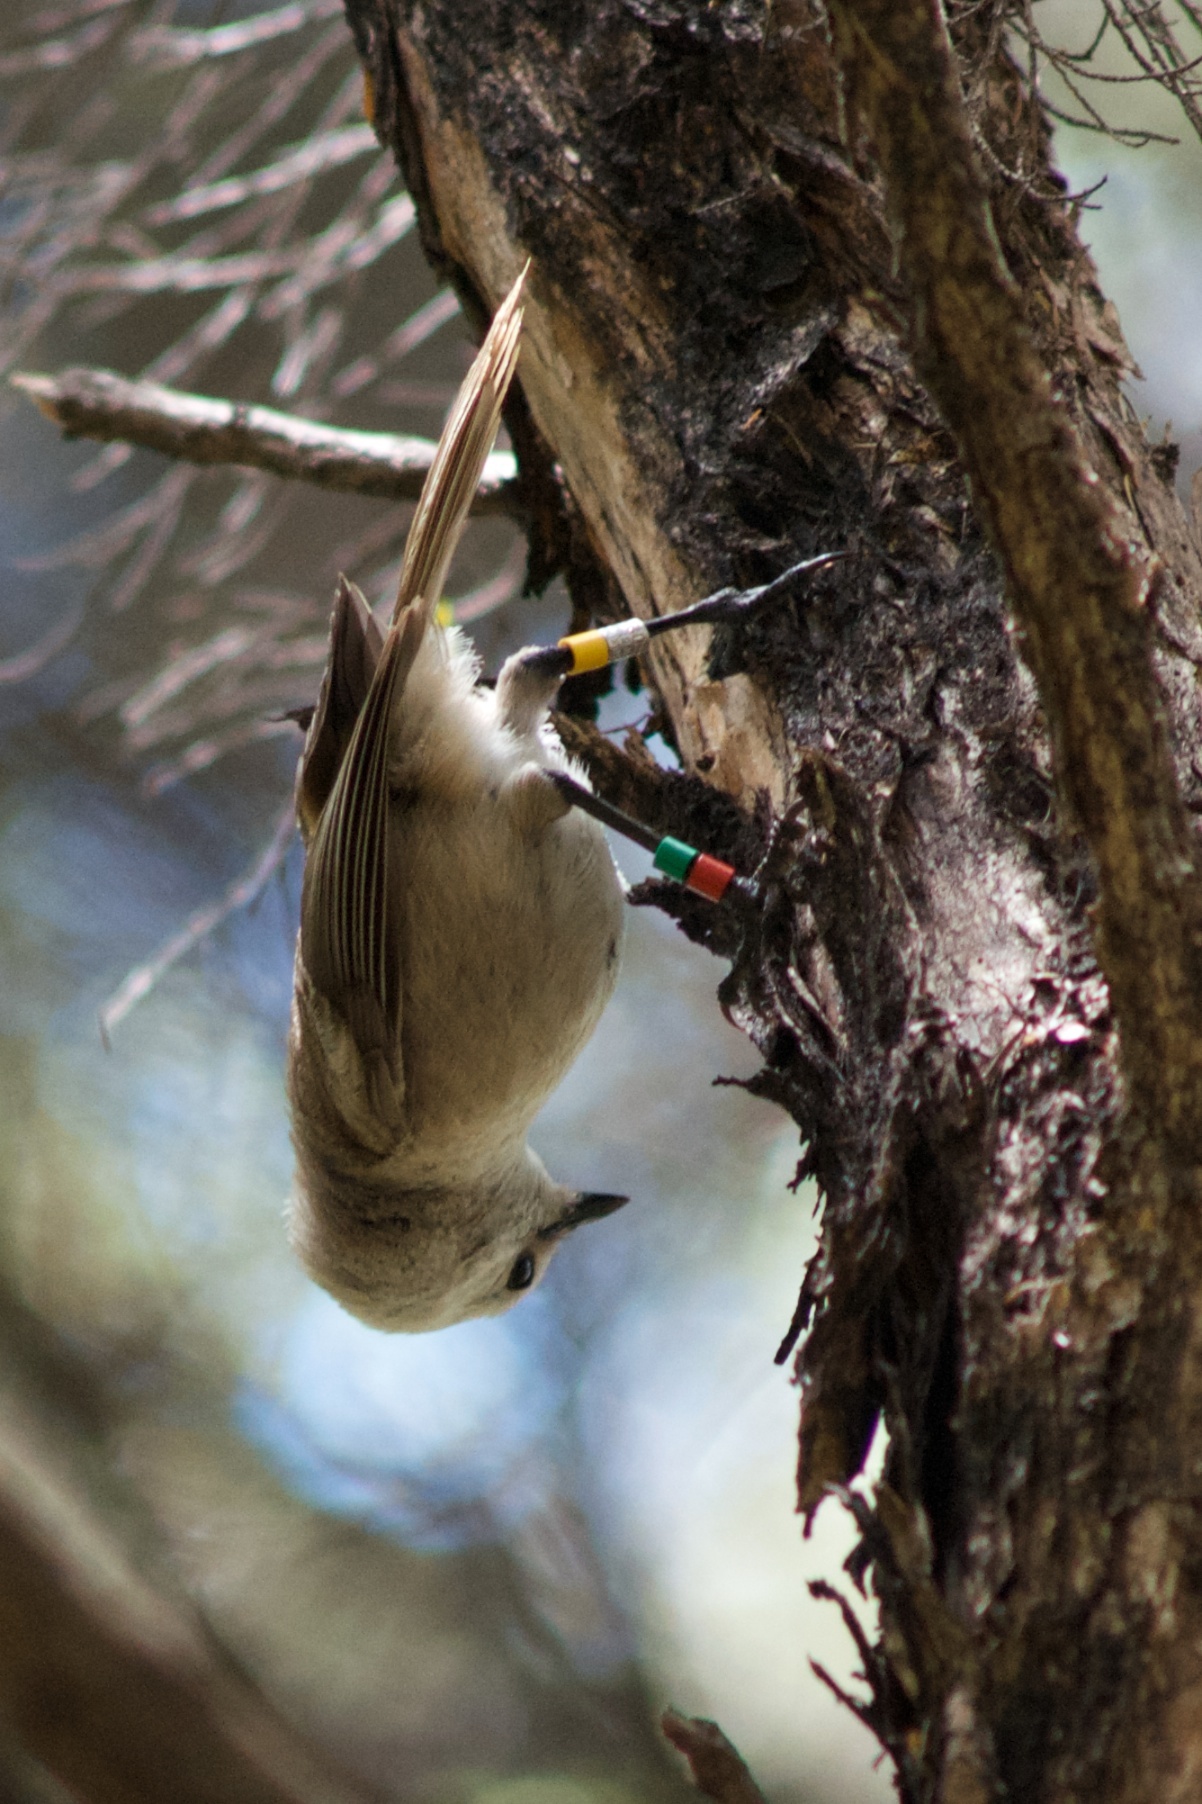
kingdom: Animalia
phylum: Chordata
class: Aves
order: Passeriformes
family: Acanthizidae
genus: Mohoua
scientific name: Mohoua albicilla
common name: Whitehead
